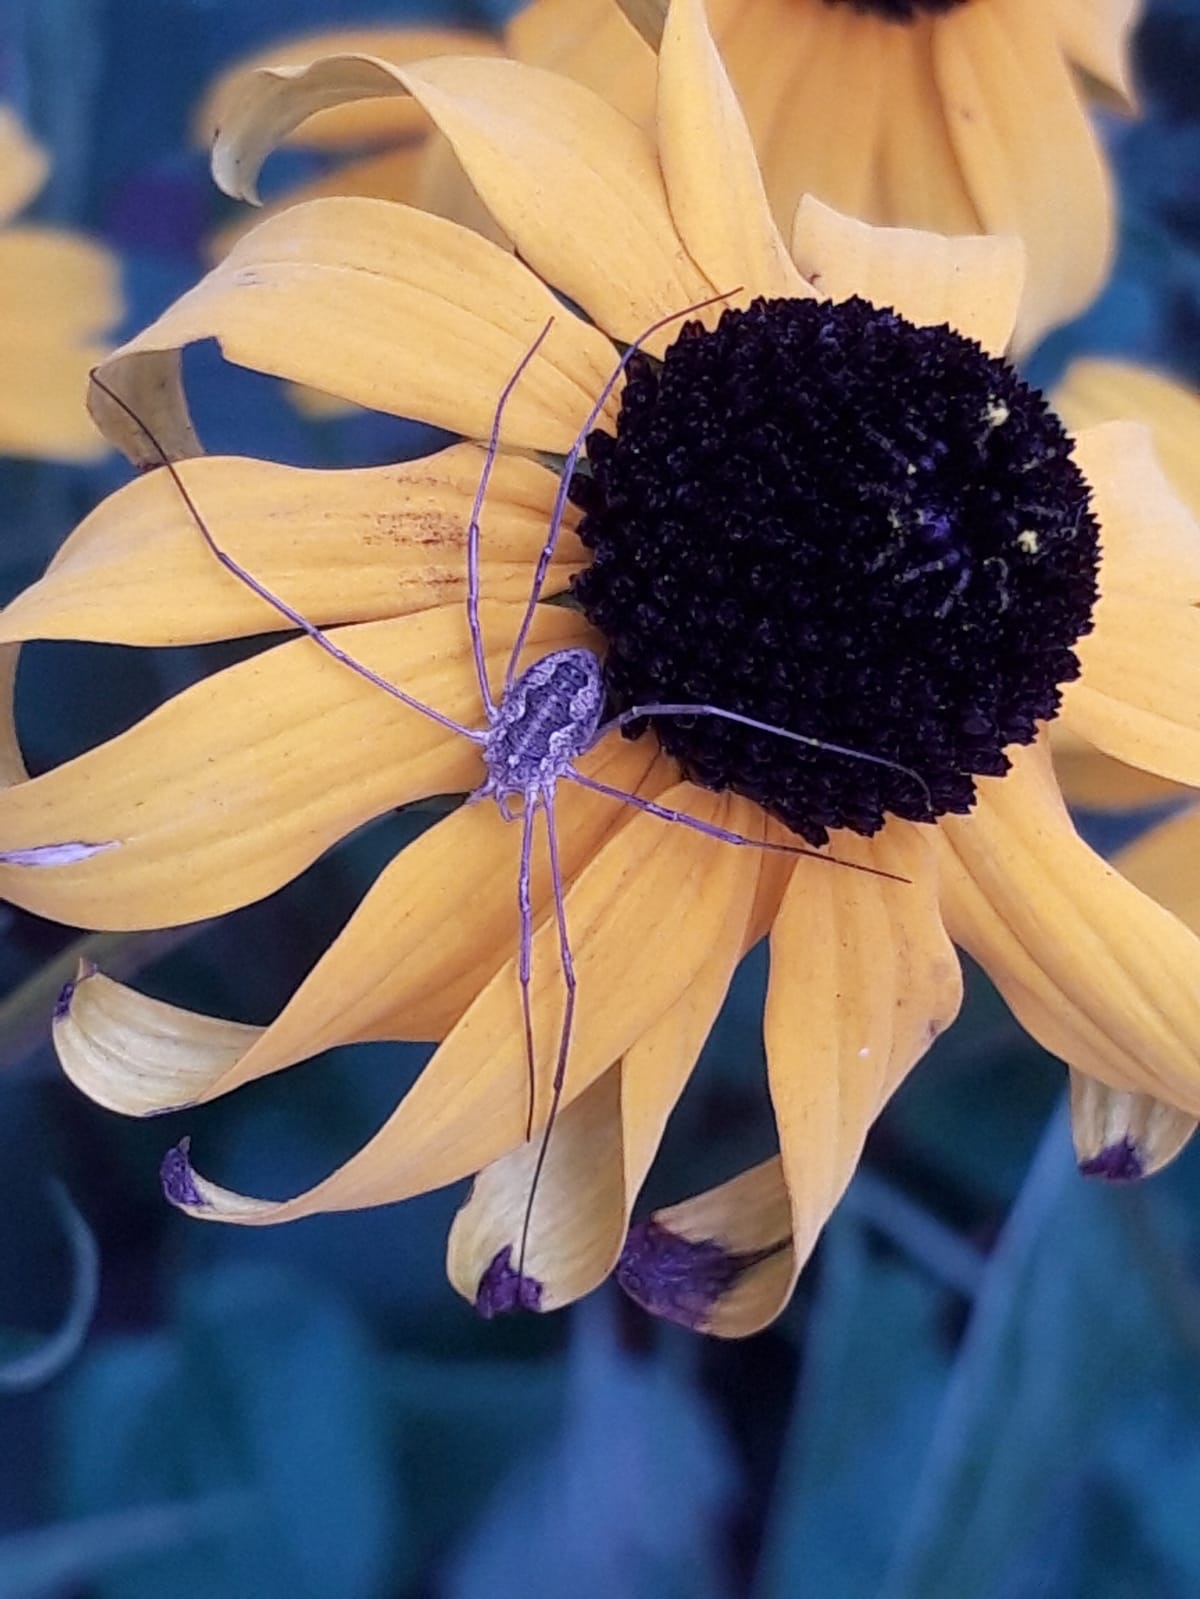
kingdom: Animalia
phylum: Arthropoda
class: Arachnida
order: Opiliones
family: Phalangiidae
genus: Phalangium
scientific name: Phalangium opilio
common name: Daddy longleg
